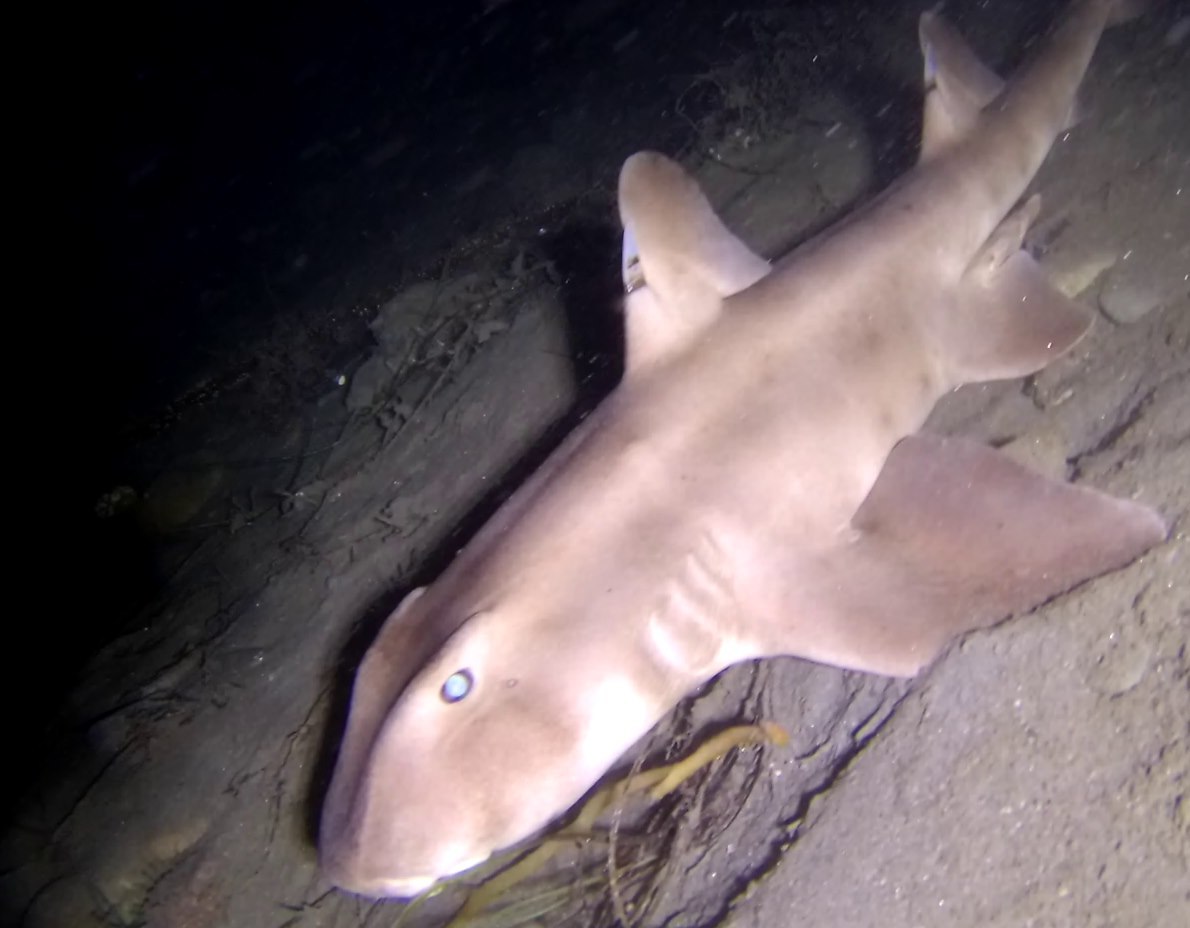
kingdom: Animalia
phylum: Chordata
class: Elasmobranchii
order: Heterodontiformes
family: Heterodontidae
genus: Heterodontus
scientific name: Heterodontus francisci
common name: Horn shark
